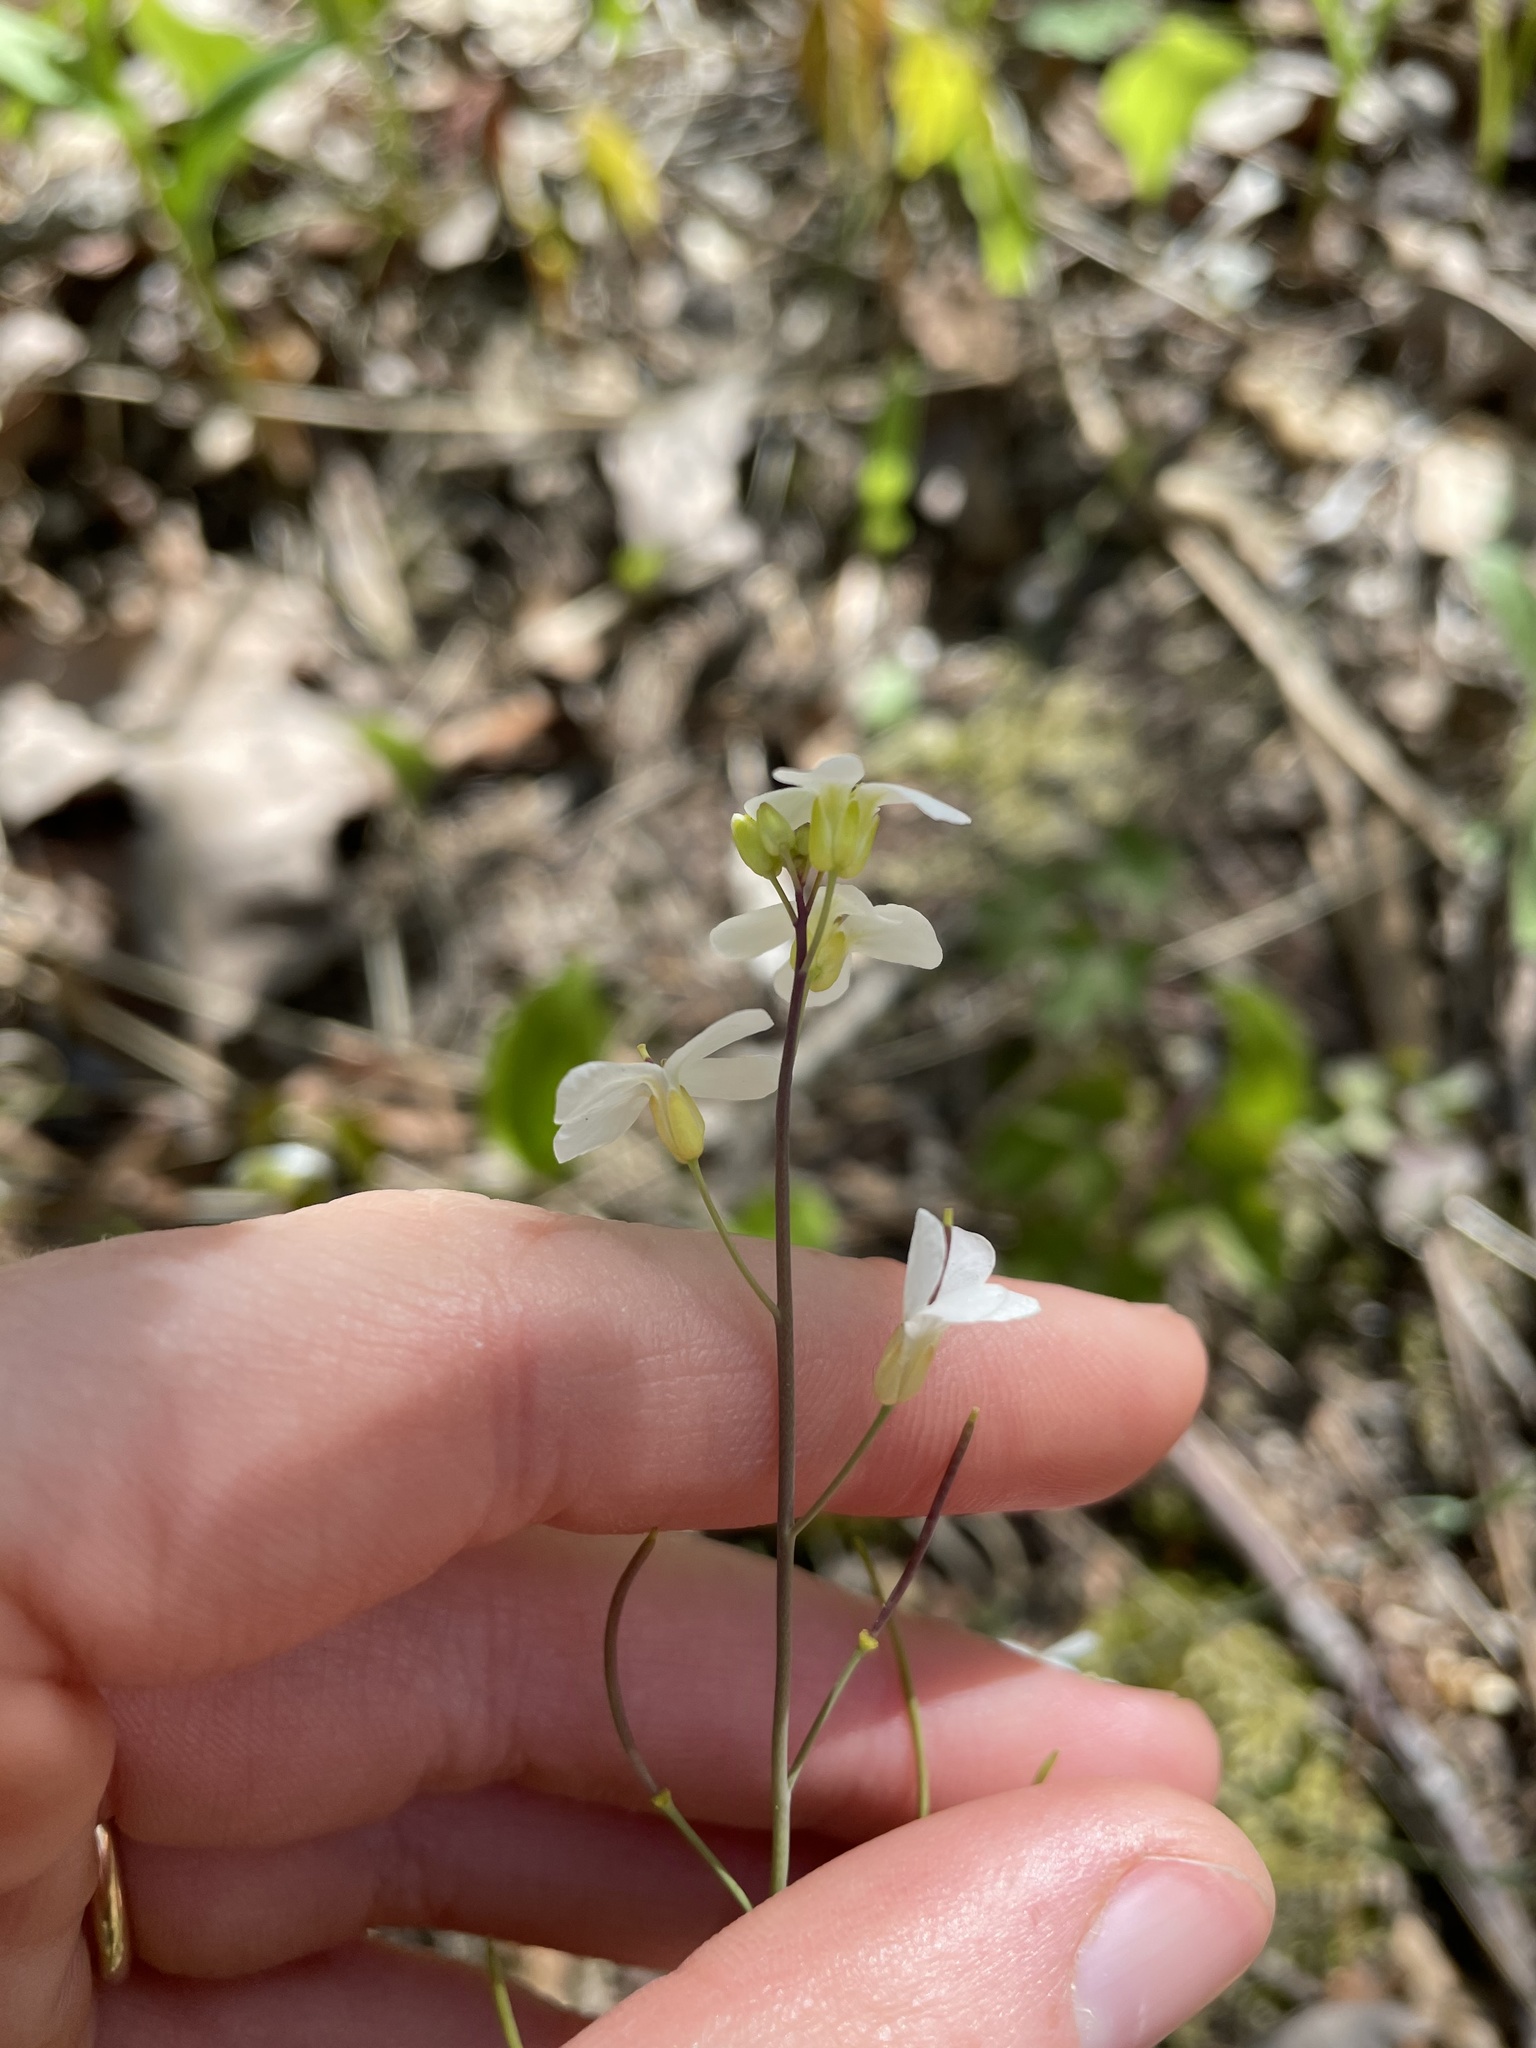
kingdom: Plantae
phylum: Tracheophyta
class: Magnoliopsida
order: Brassicales
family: Brassicaceae
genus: Arabidopsis
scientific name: Arabidopsis lyrata
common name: Lyrate rockcress
